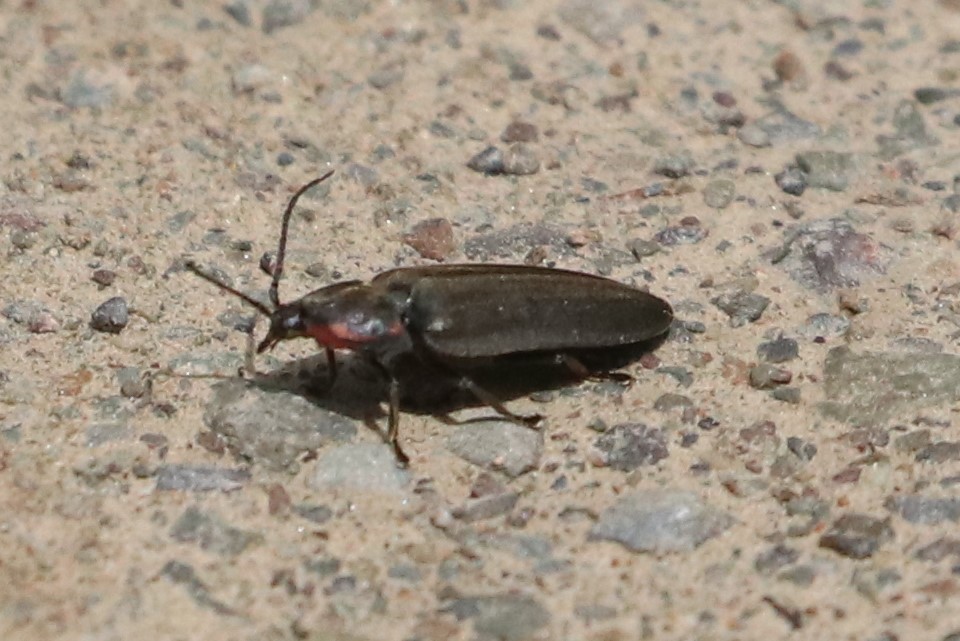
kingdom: Animalia
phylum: Arthropoda
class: Insecta
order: Coleoptera
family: Lampyridae
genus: Photinus
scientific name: Photinus corrusca
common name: Winter firefly
